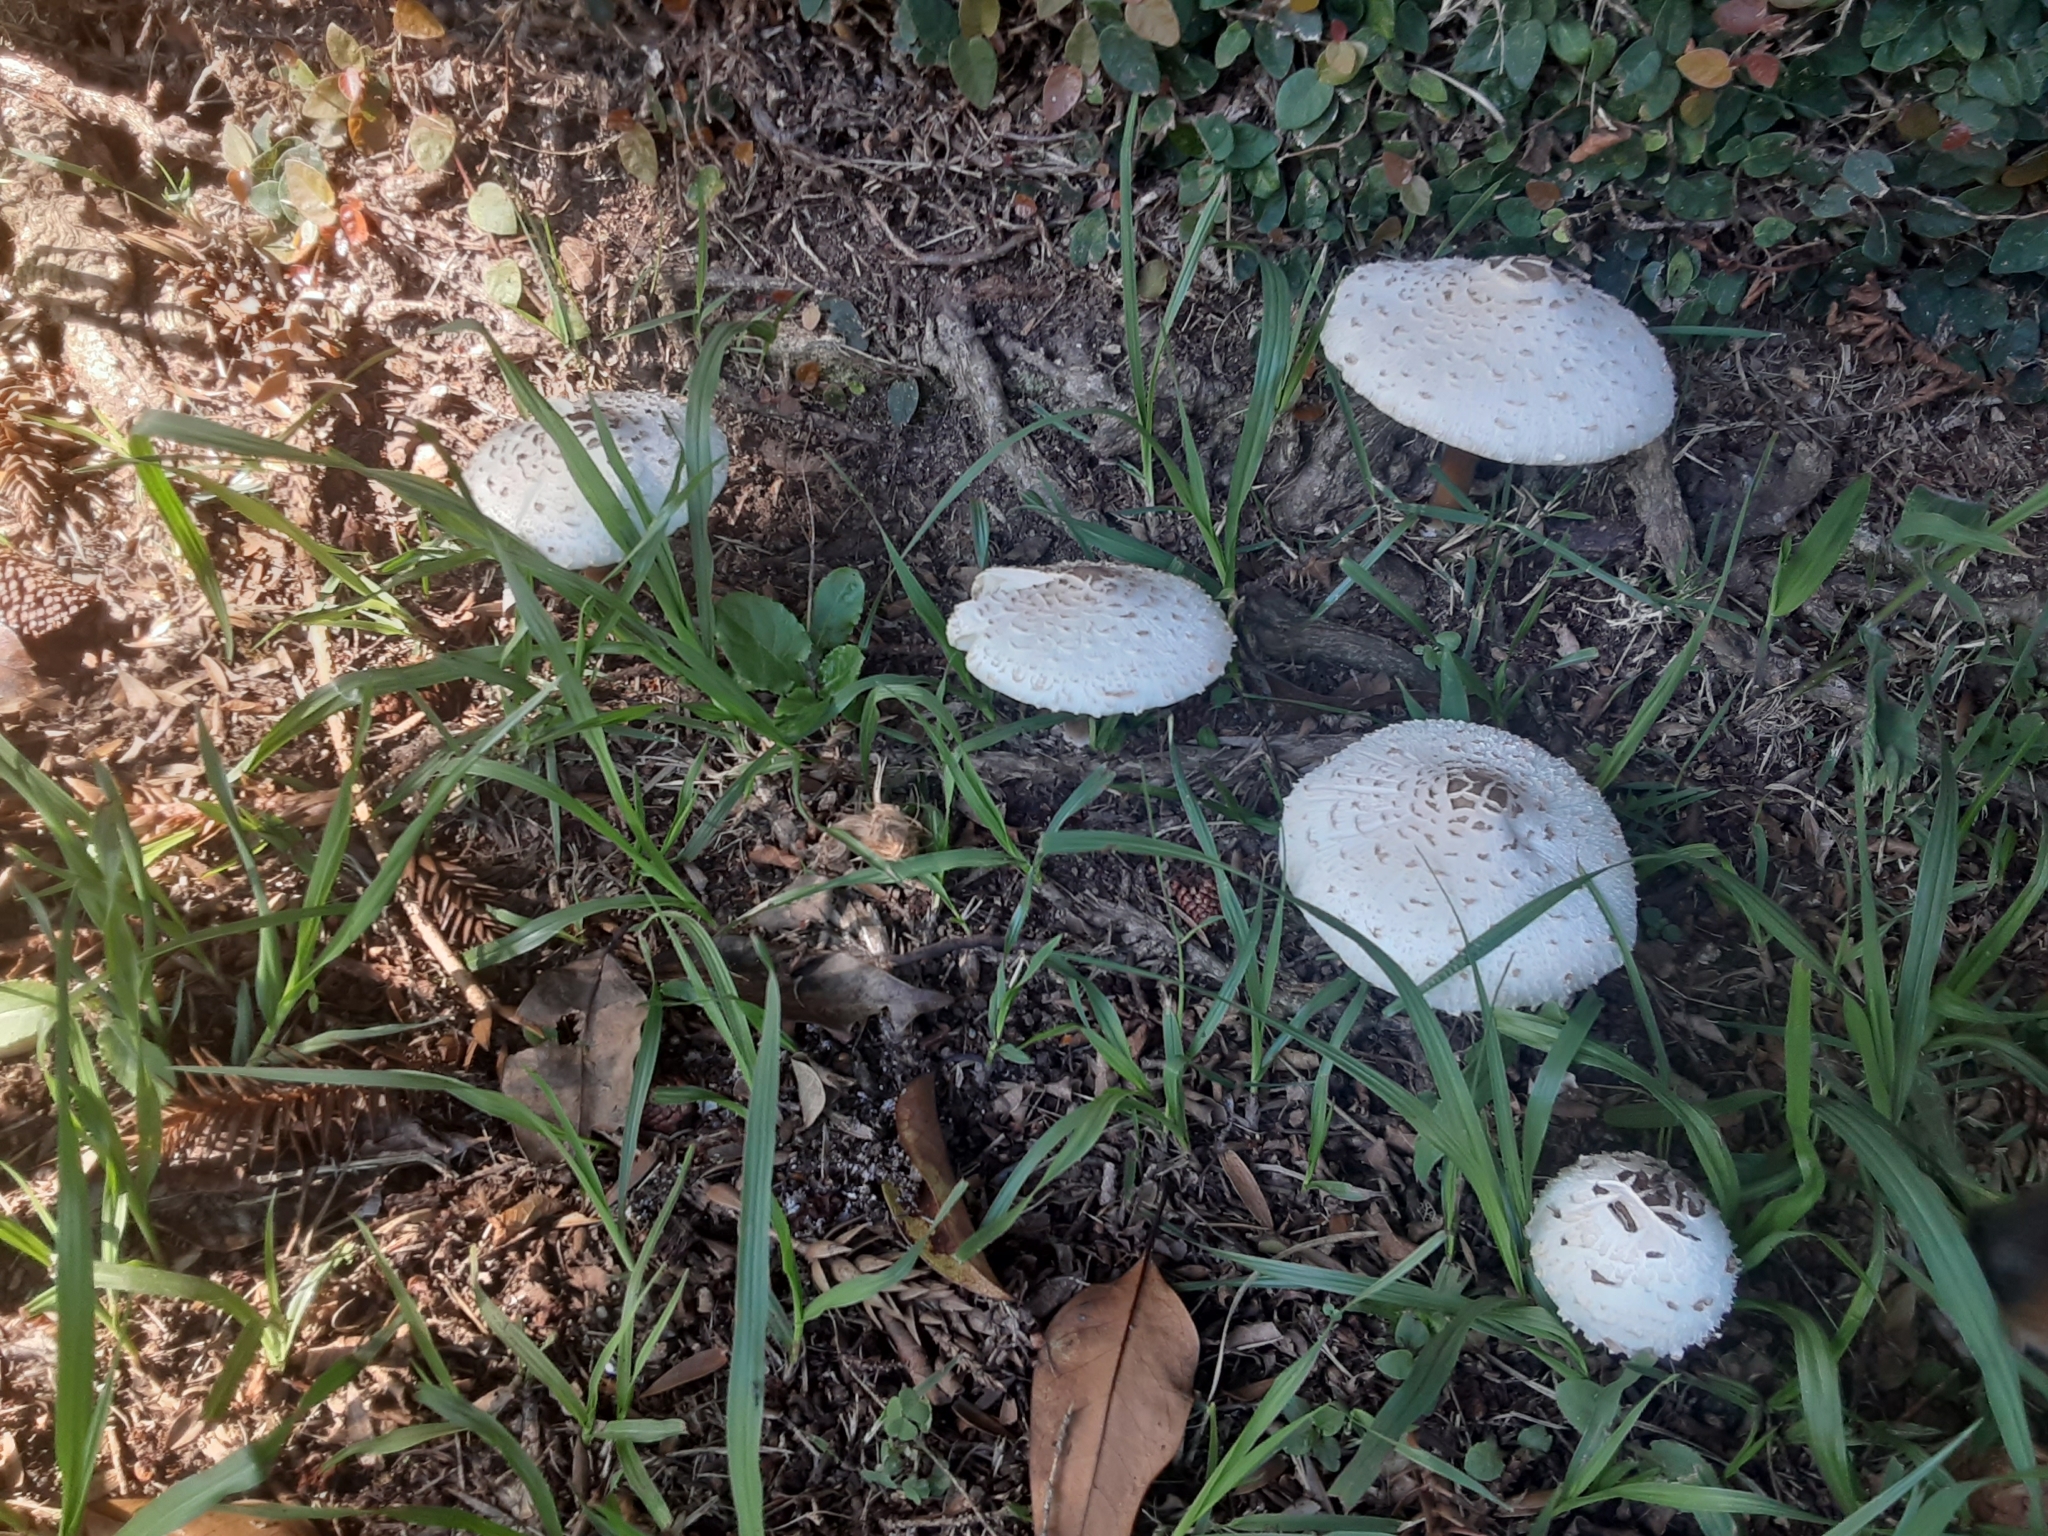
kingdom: Fungi
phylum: Basidiomycota
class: Agaricomycetes
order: Agaricales
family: Agaricaceae
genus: Chlorophyllum
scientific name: Chlorophyllum molybdites
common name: False parasol
